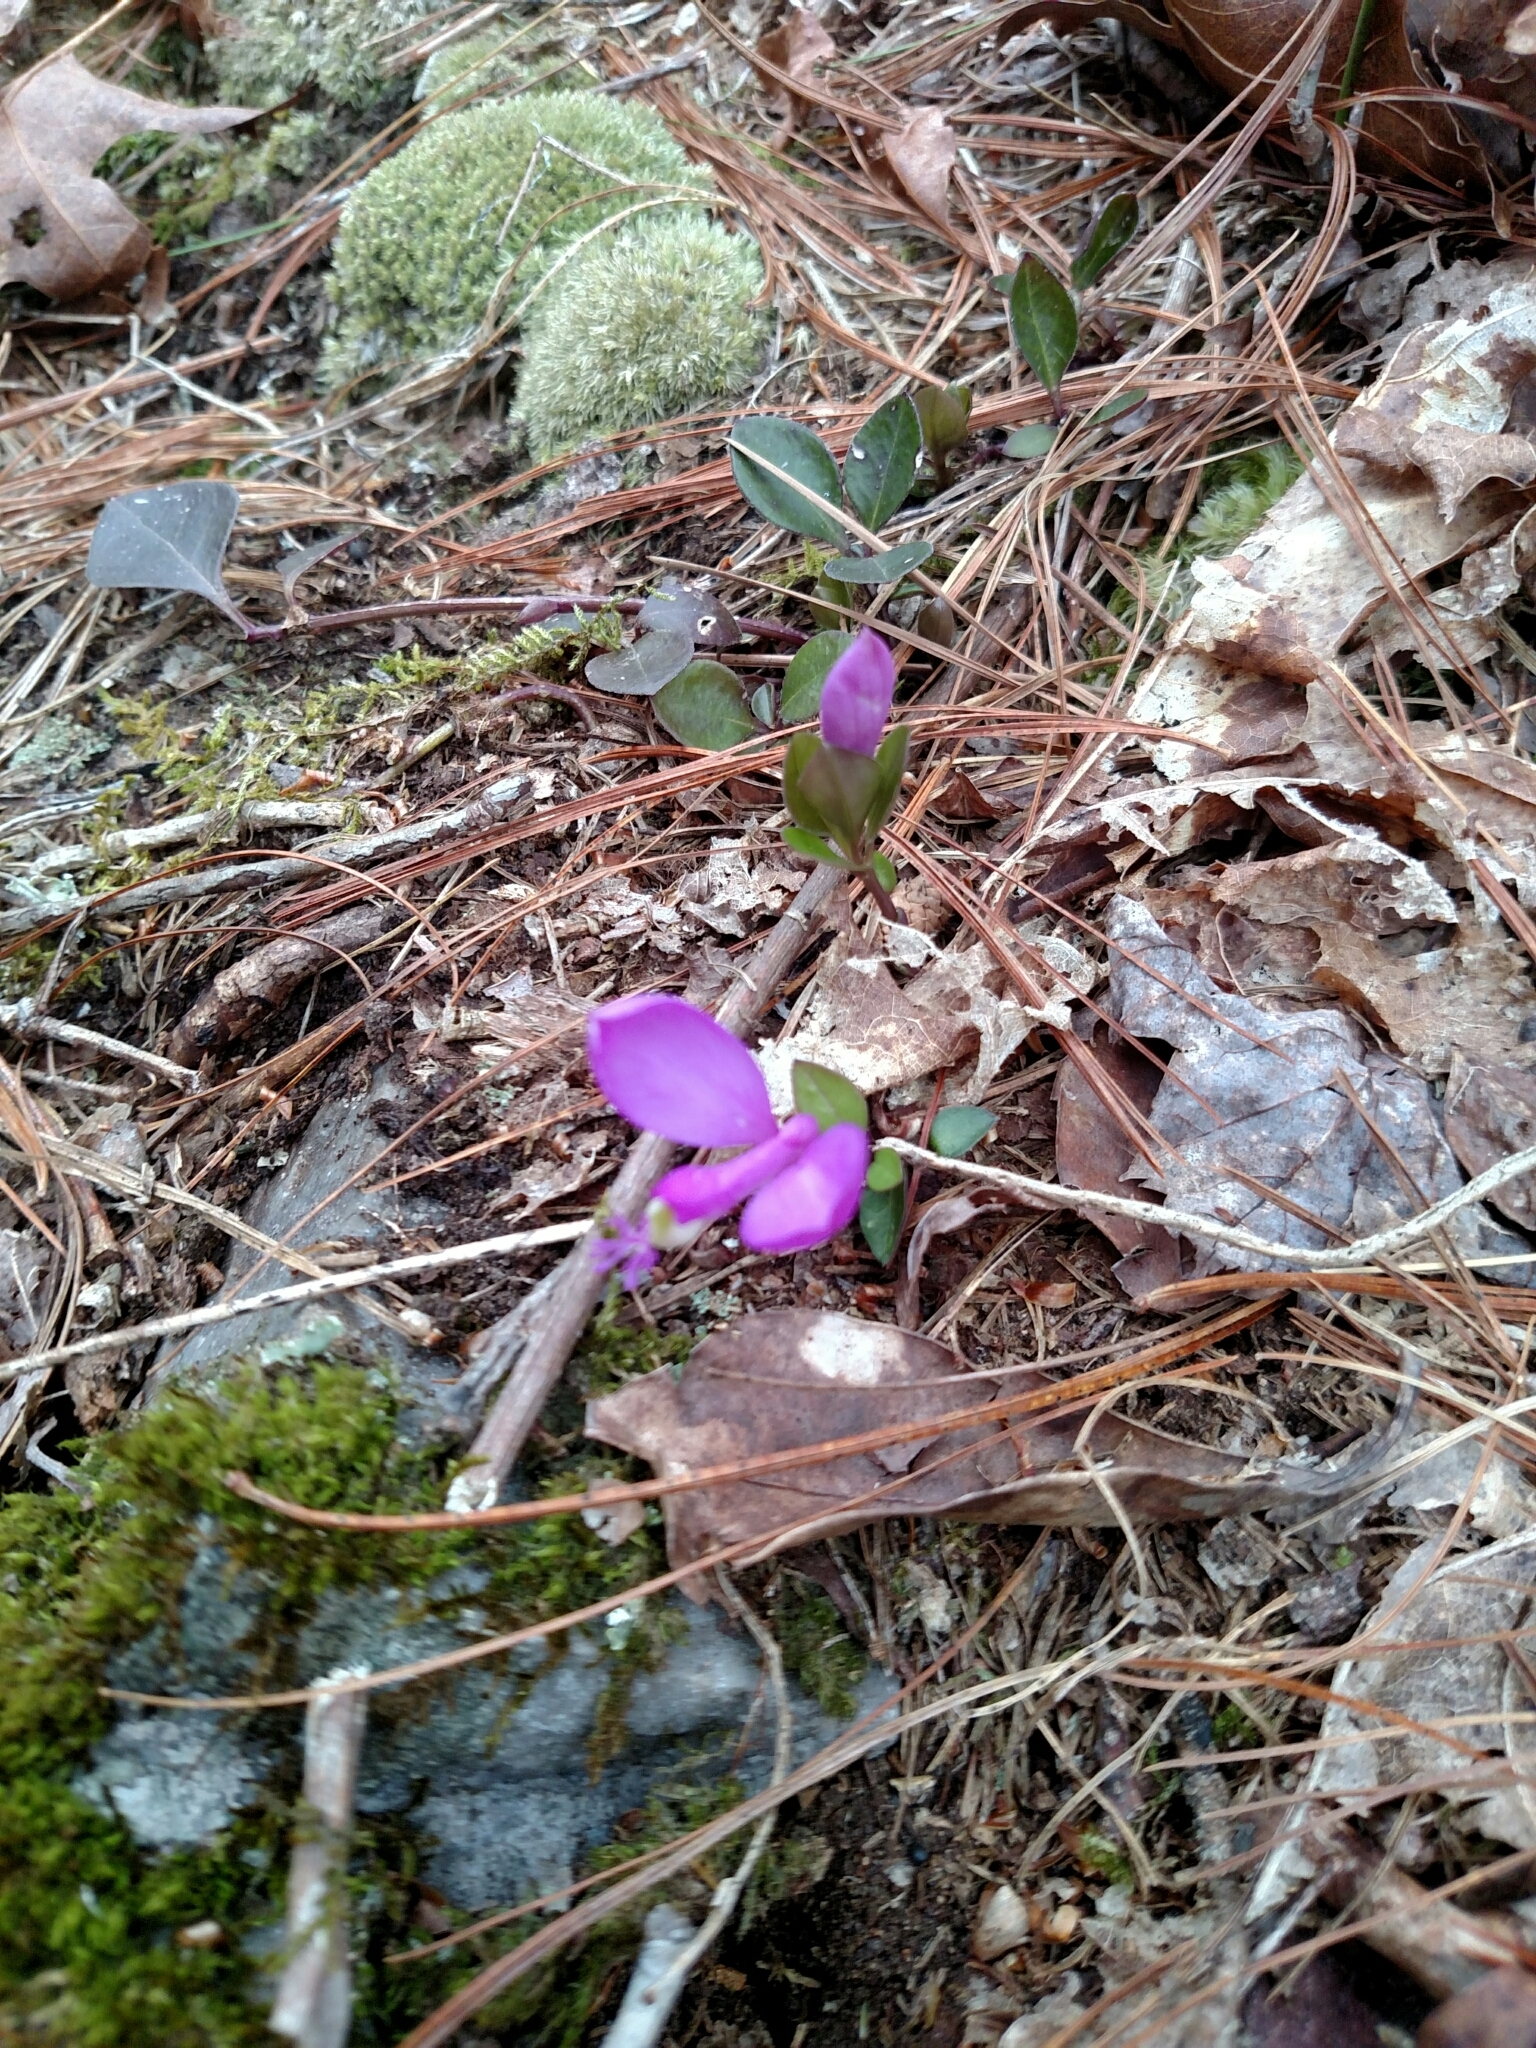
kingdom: Plantae
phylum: Tracheophyta
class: Magnoliopsida
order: Fabales
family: Polygalaceae
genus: Polygaloides
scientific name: Polygaloides paucifolia
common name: Bird-on-the-wing
